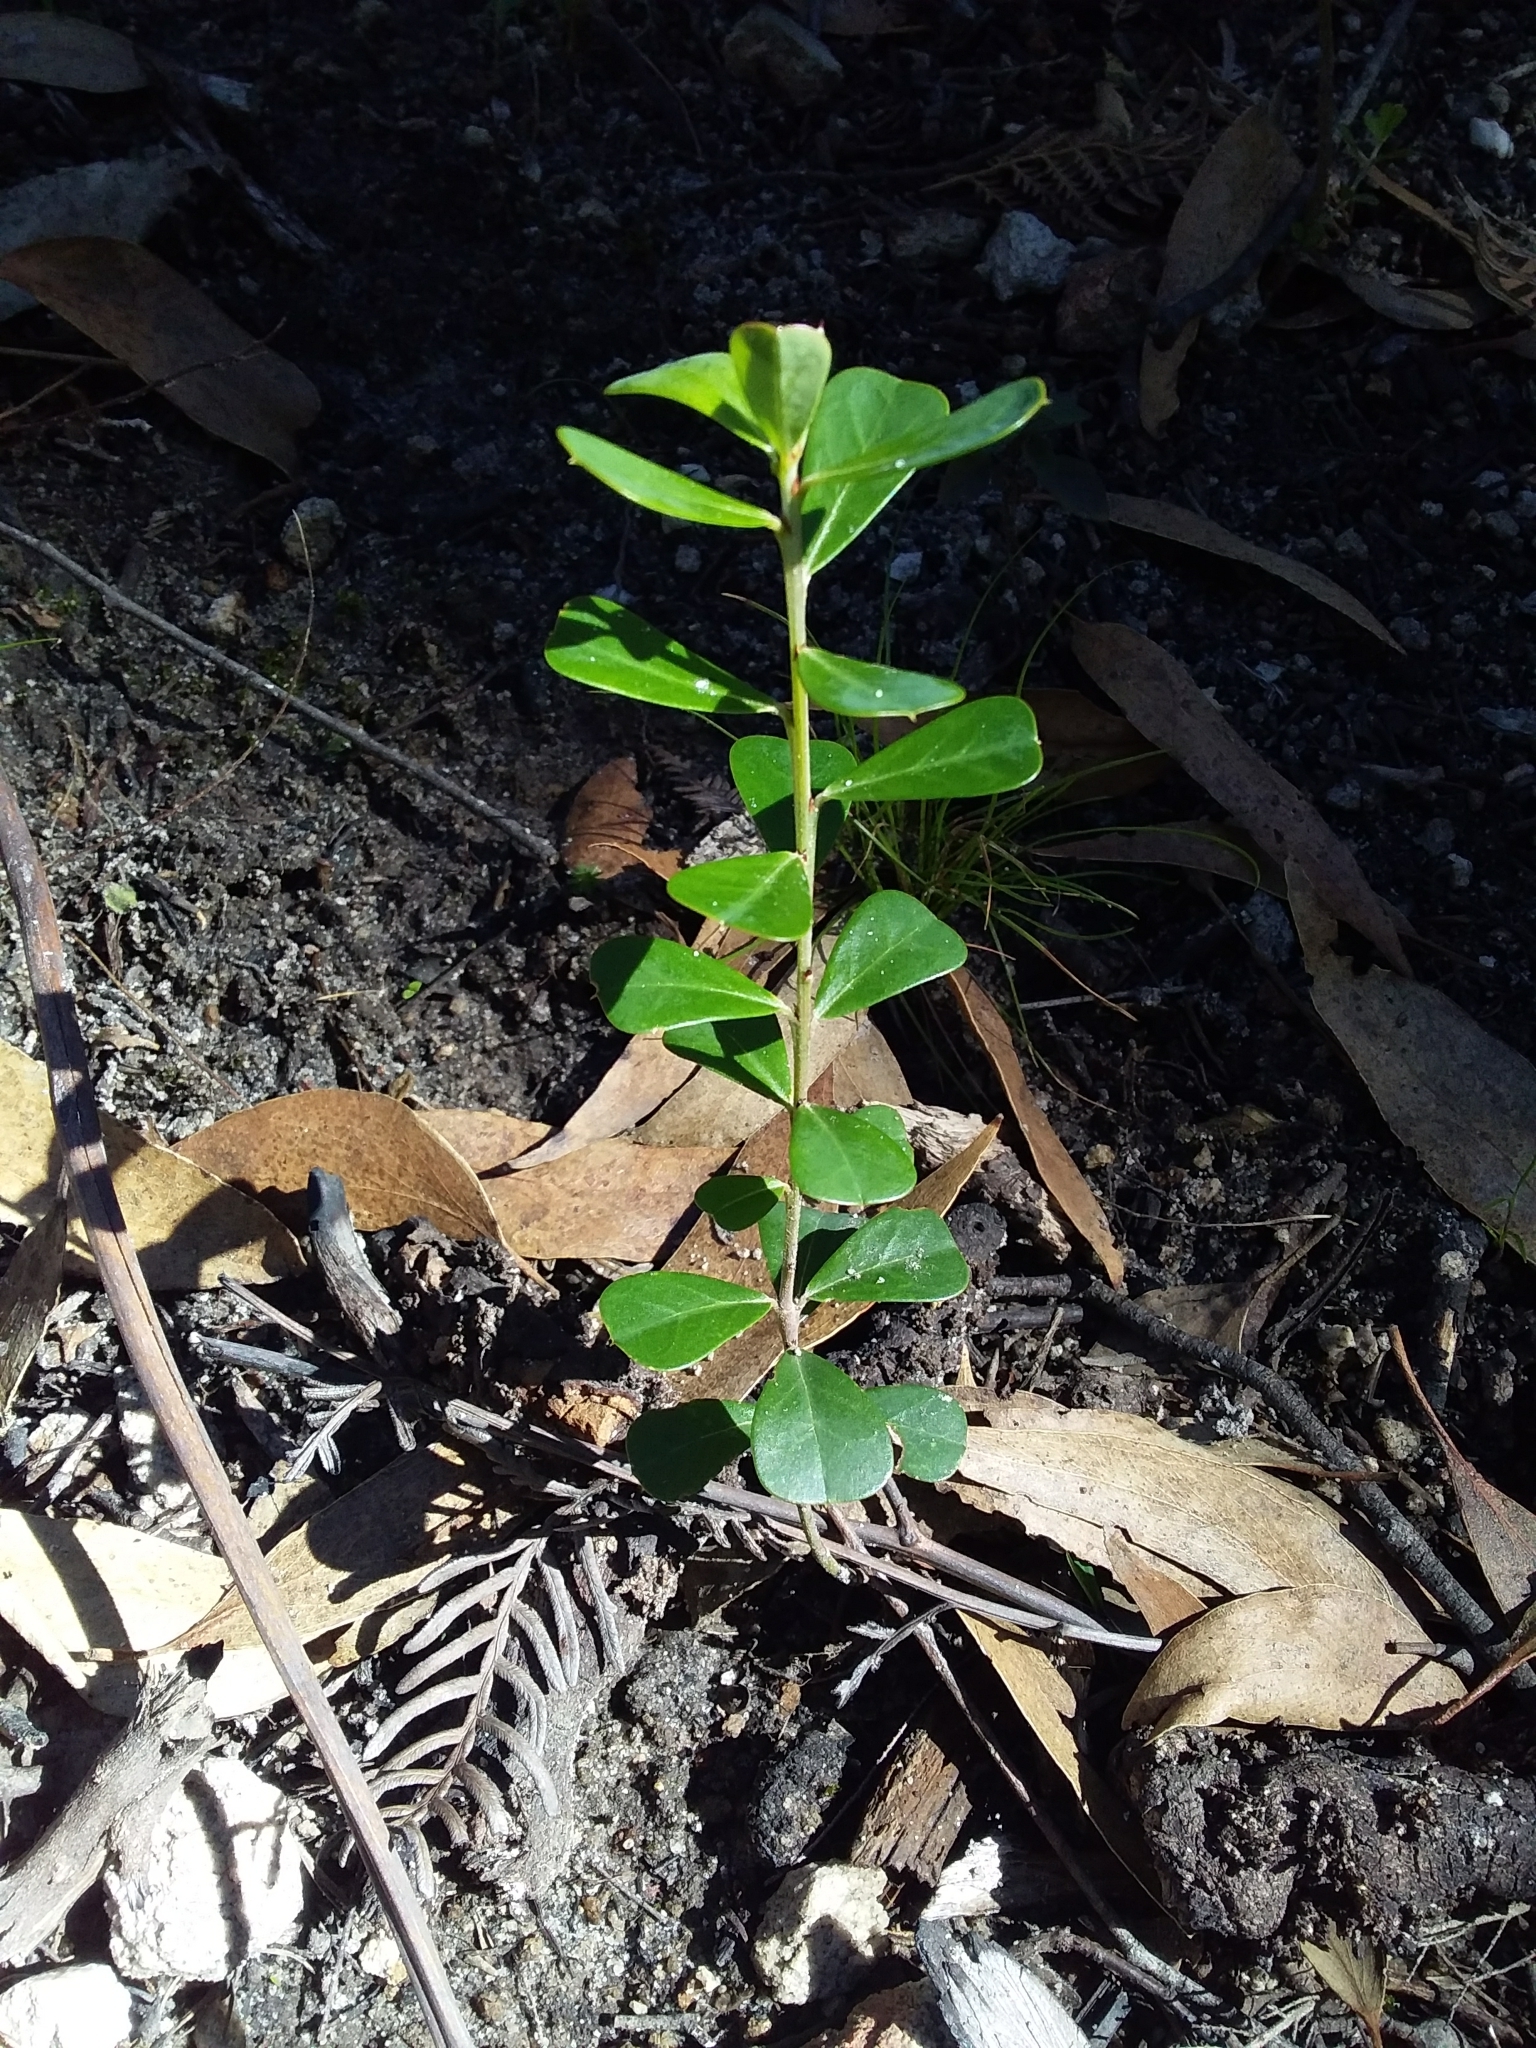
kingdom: Plantae
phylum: Tracheophyta
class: Magnoliopsida
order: Fabales
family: Fabaceae
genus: Pultenaea
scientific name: Pultenaea daphnoides
